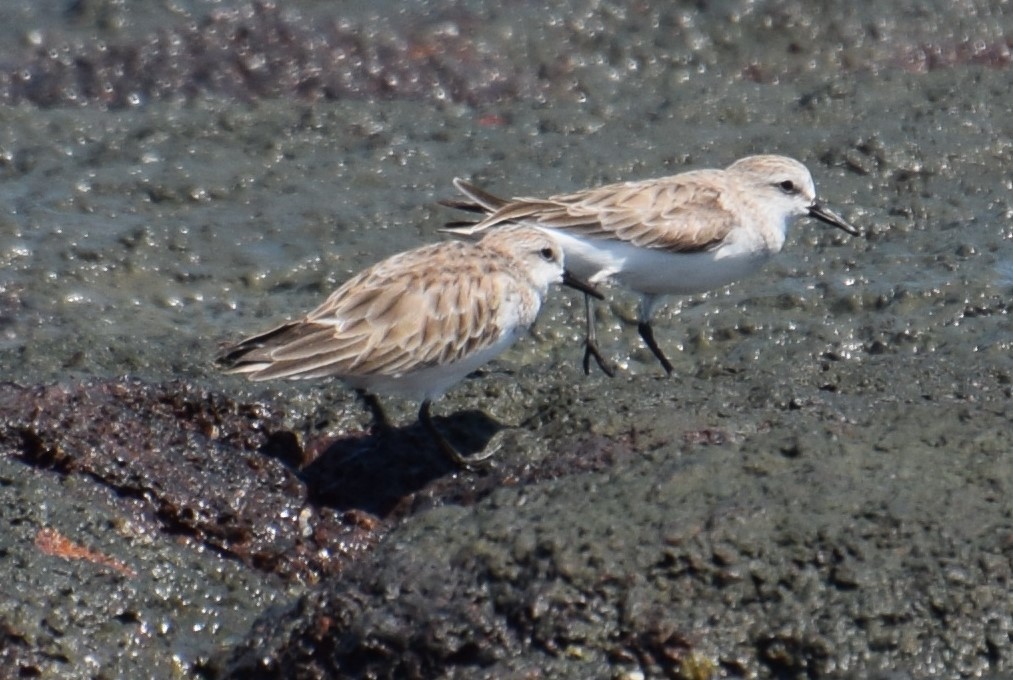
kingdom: Animalia
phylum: Chordata
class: Aves
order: Charadriiformes
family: Scolopacidae
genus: Calidris
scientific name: Calidris ruficollis
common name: Red-necked stint
